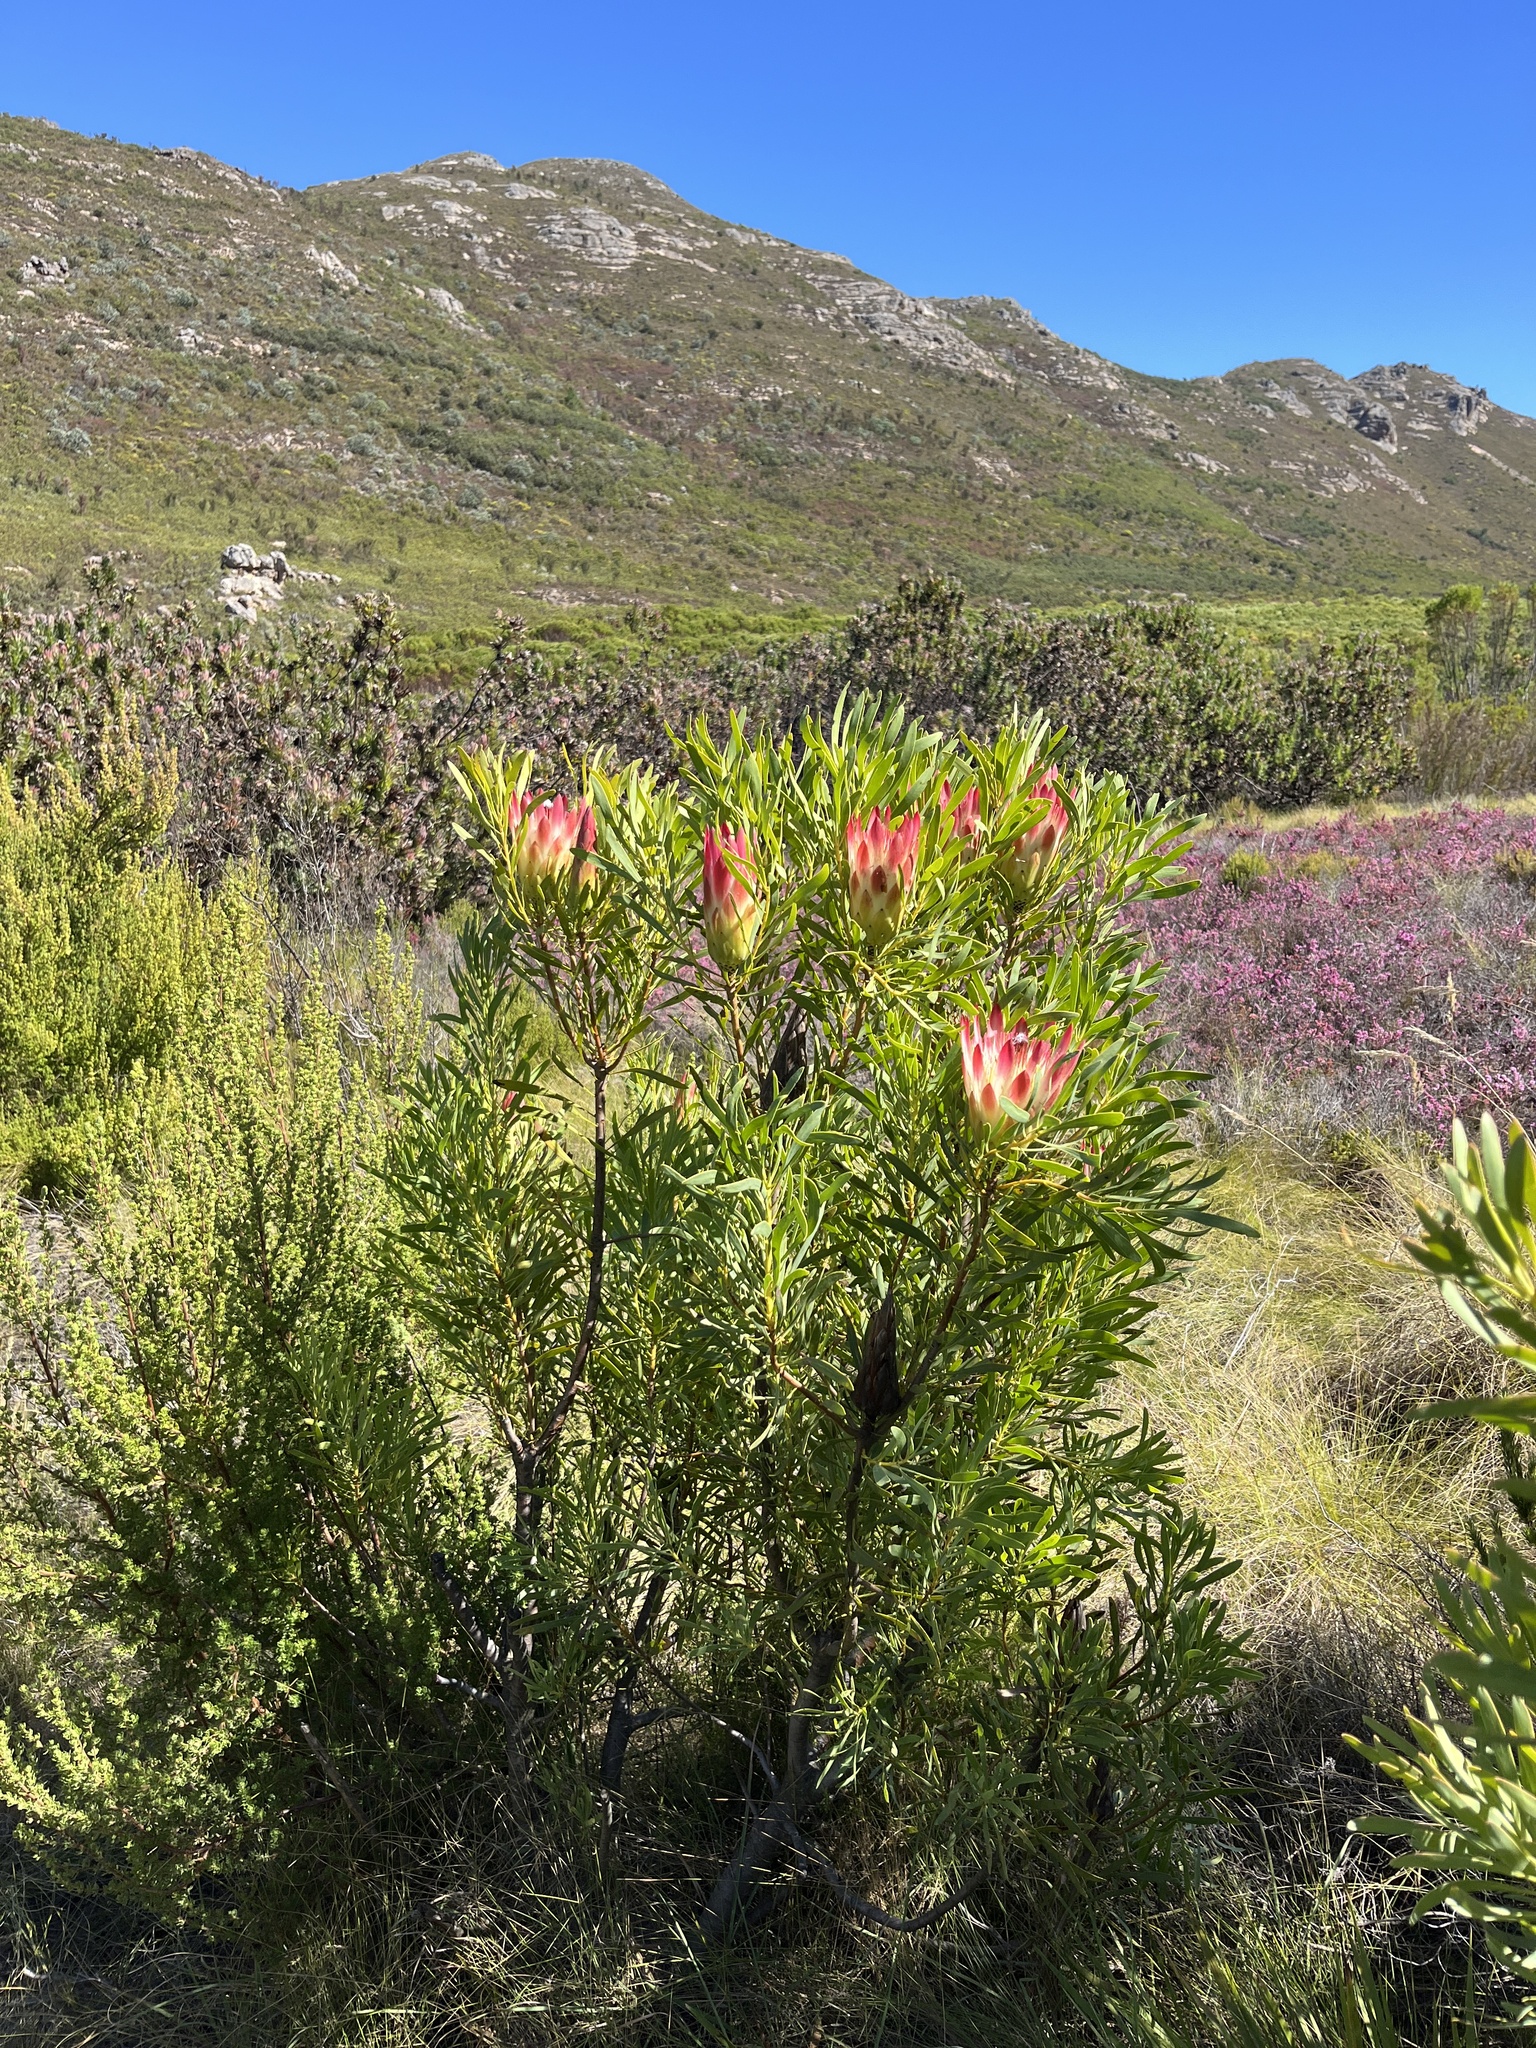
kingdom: Plantae
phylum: Tracheophyta
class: Magnoliopsida
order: Proteales
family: Proteaceae
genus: Protea
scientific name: Protea repens
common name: Sugarbush
